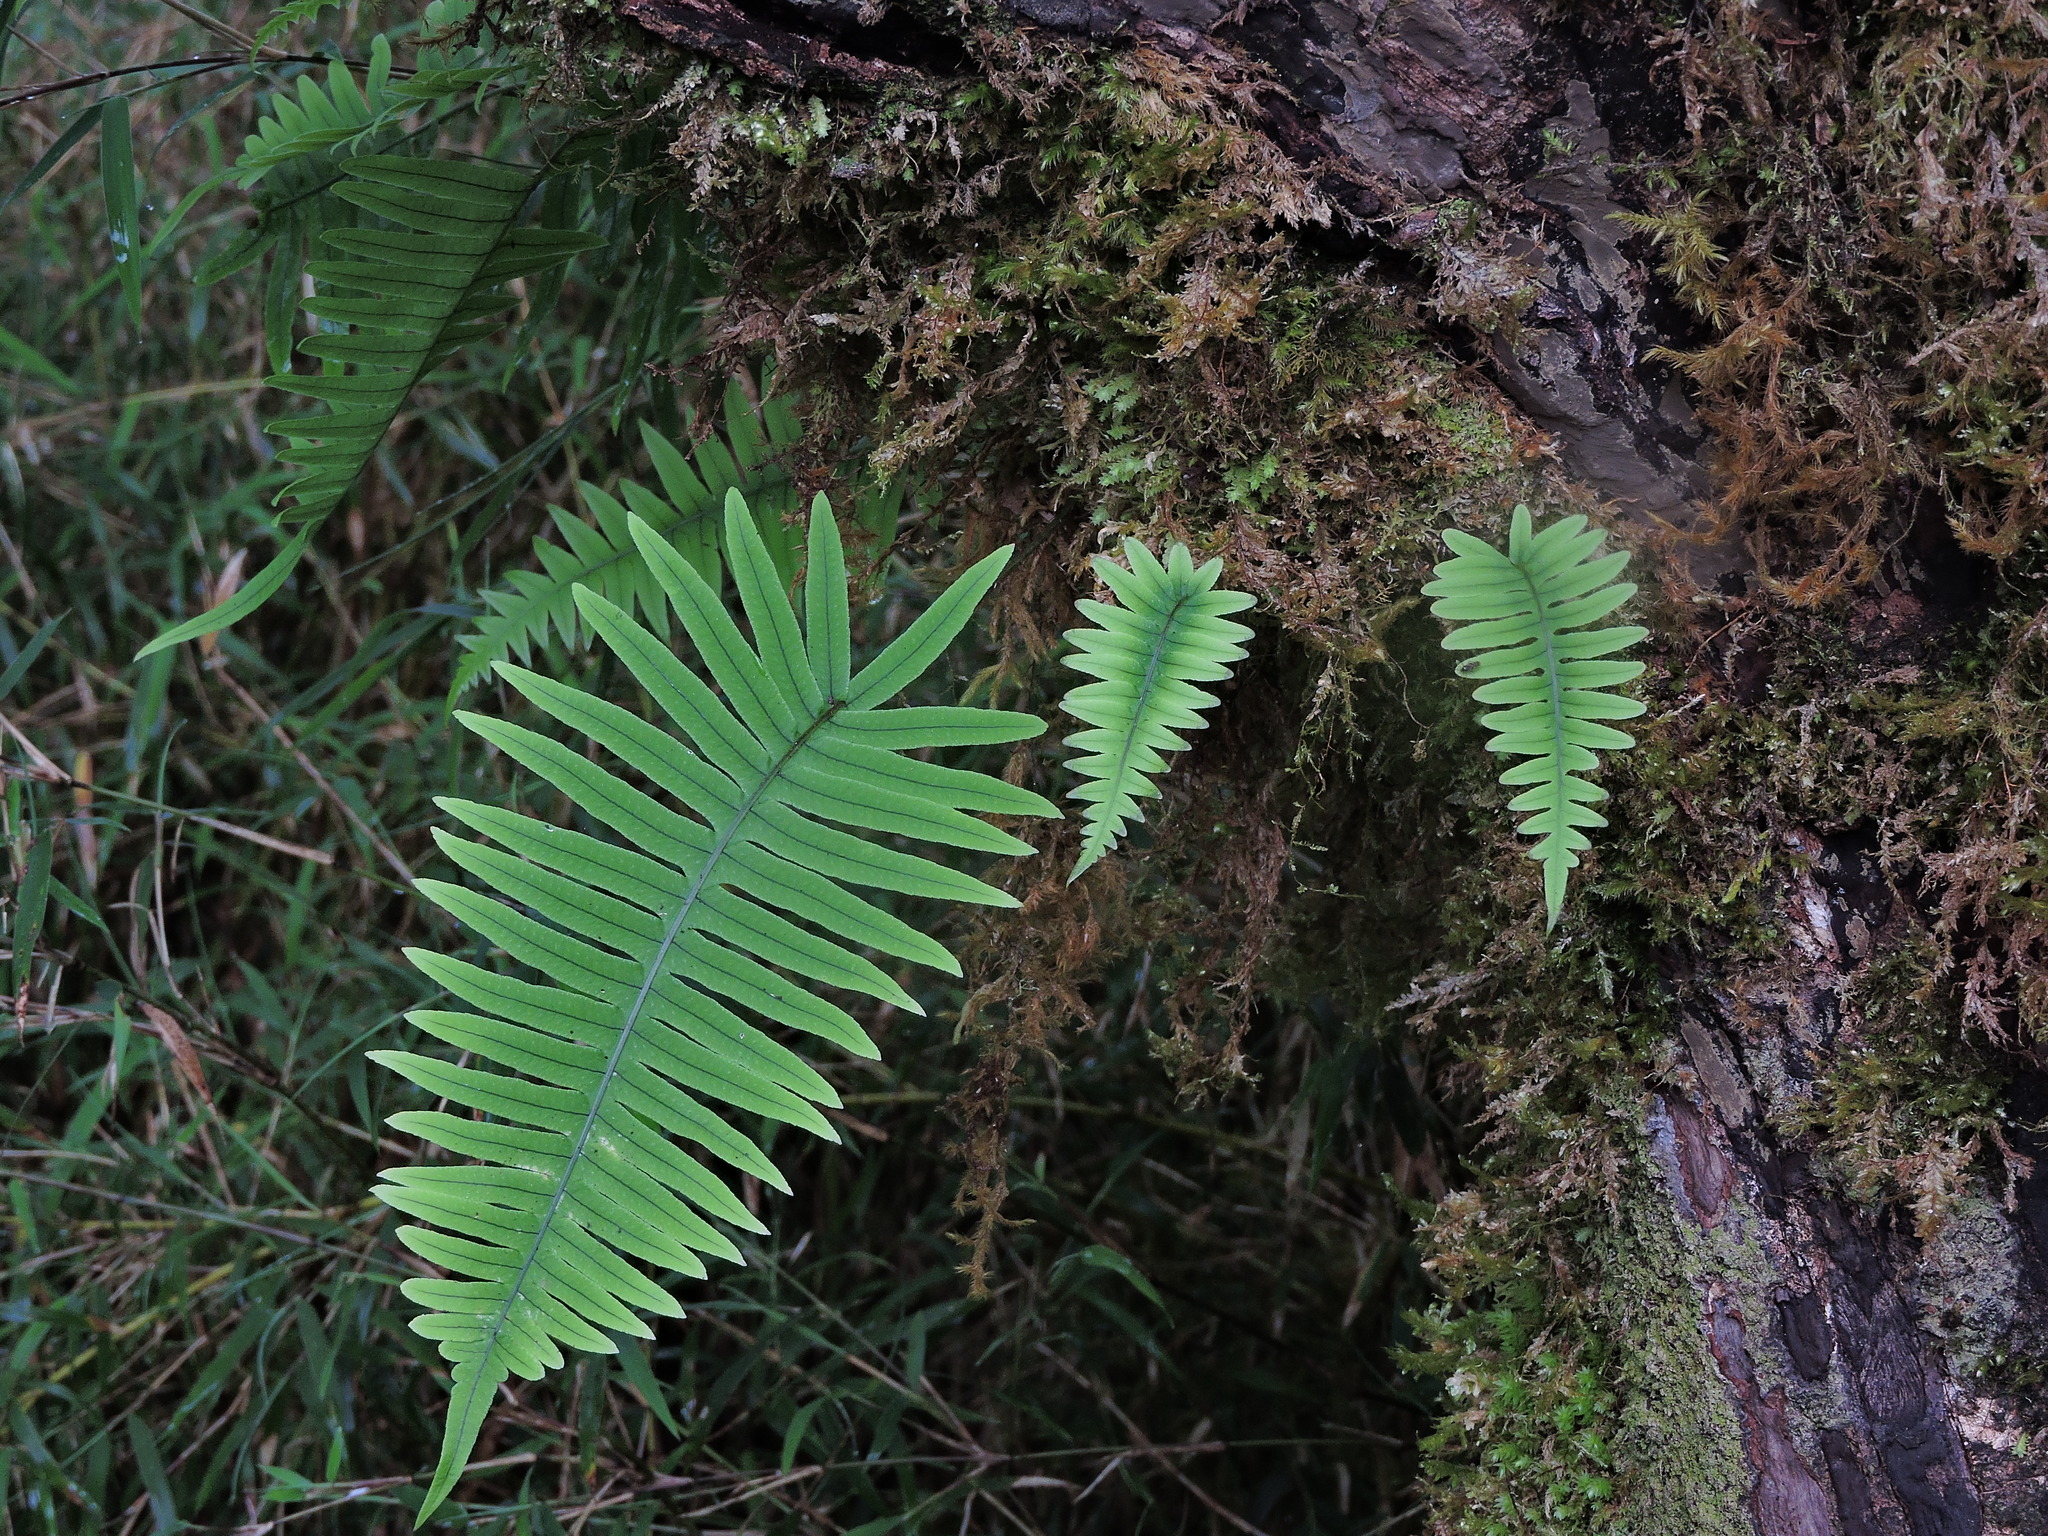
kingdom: Plantae
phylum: Tracheophyta
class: Polypodiopsida
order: Polypodiales
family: Polypodiaceae
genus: Goniophlebium
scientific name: Goniophlebium amoenum
